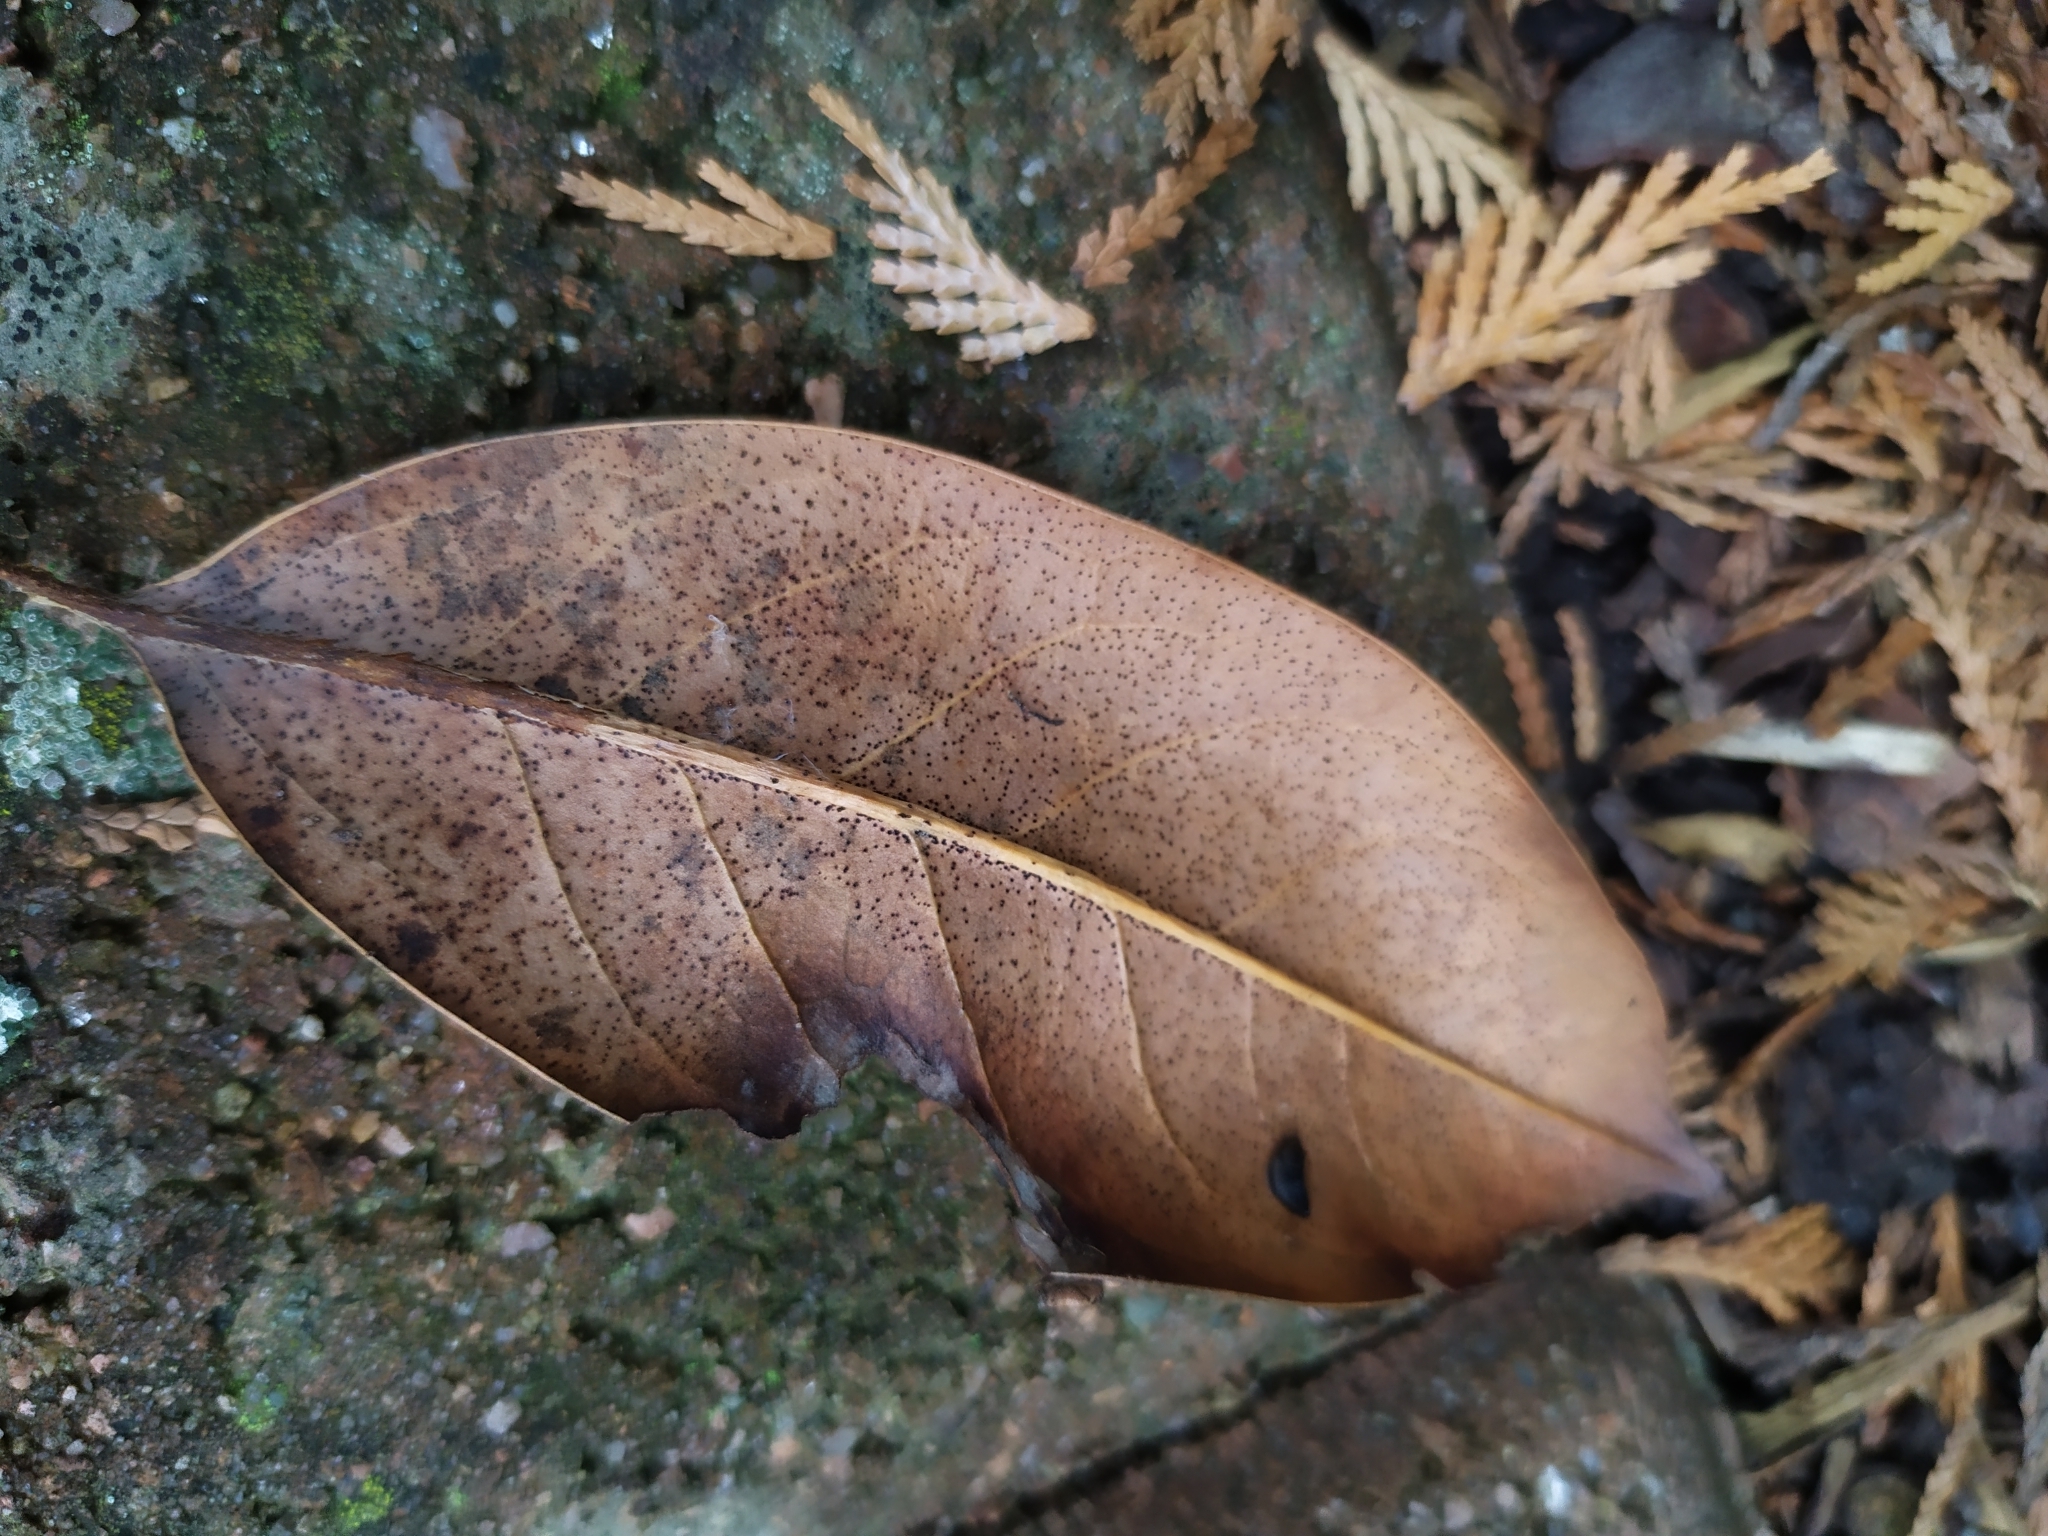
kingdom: Fungi
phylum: Ascomycota
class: Leotiomycetes
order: Helotiales
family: Cenangiaceae
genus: Trochila
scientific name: Trochila laurocerasi
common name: Laurel speckle
